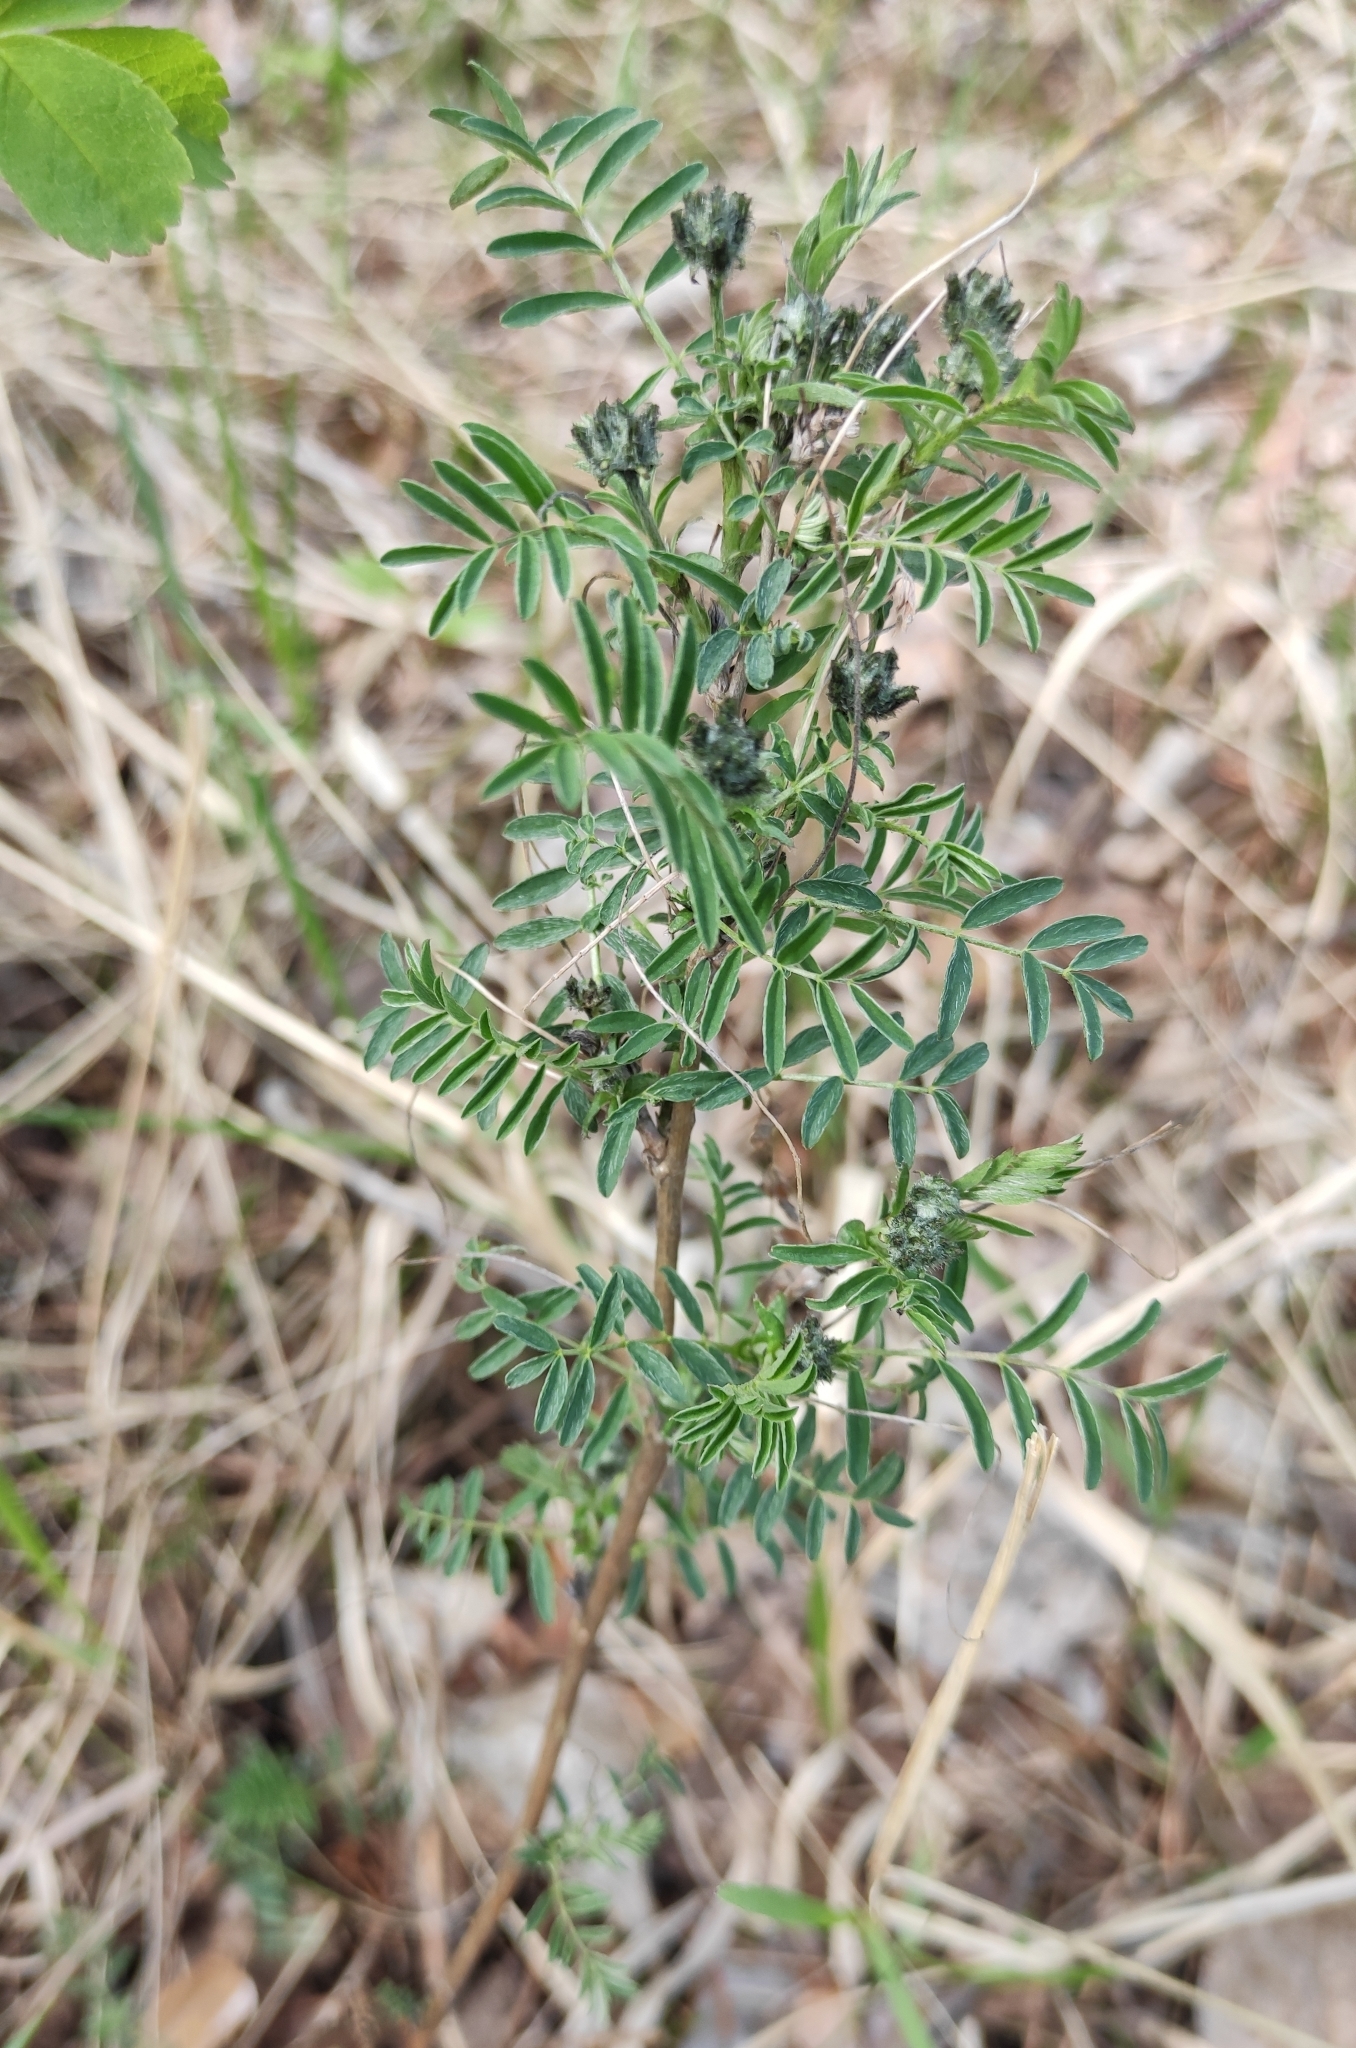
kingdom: Plantae
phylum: Tracheophyta
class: Magnoliopsida
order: Fabales
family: Fabaceae
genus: Astragalus
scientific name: Astragalus syriacus
